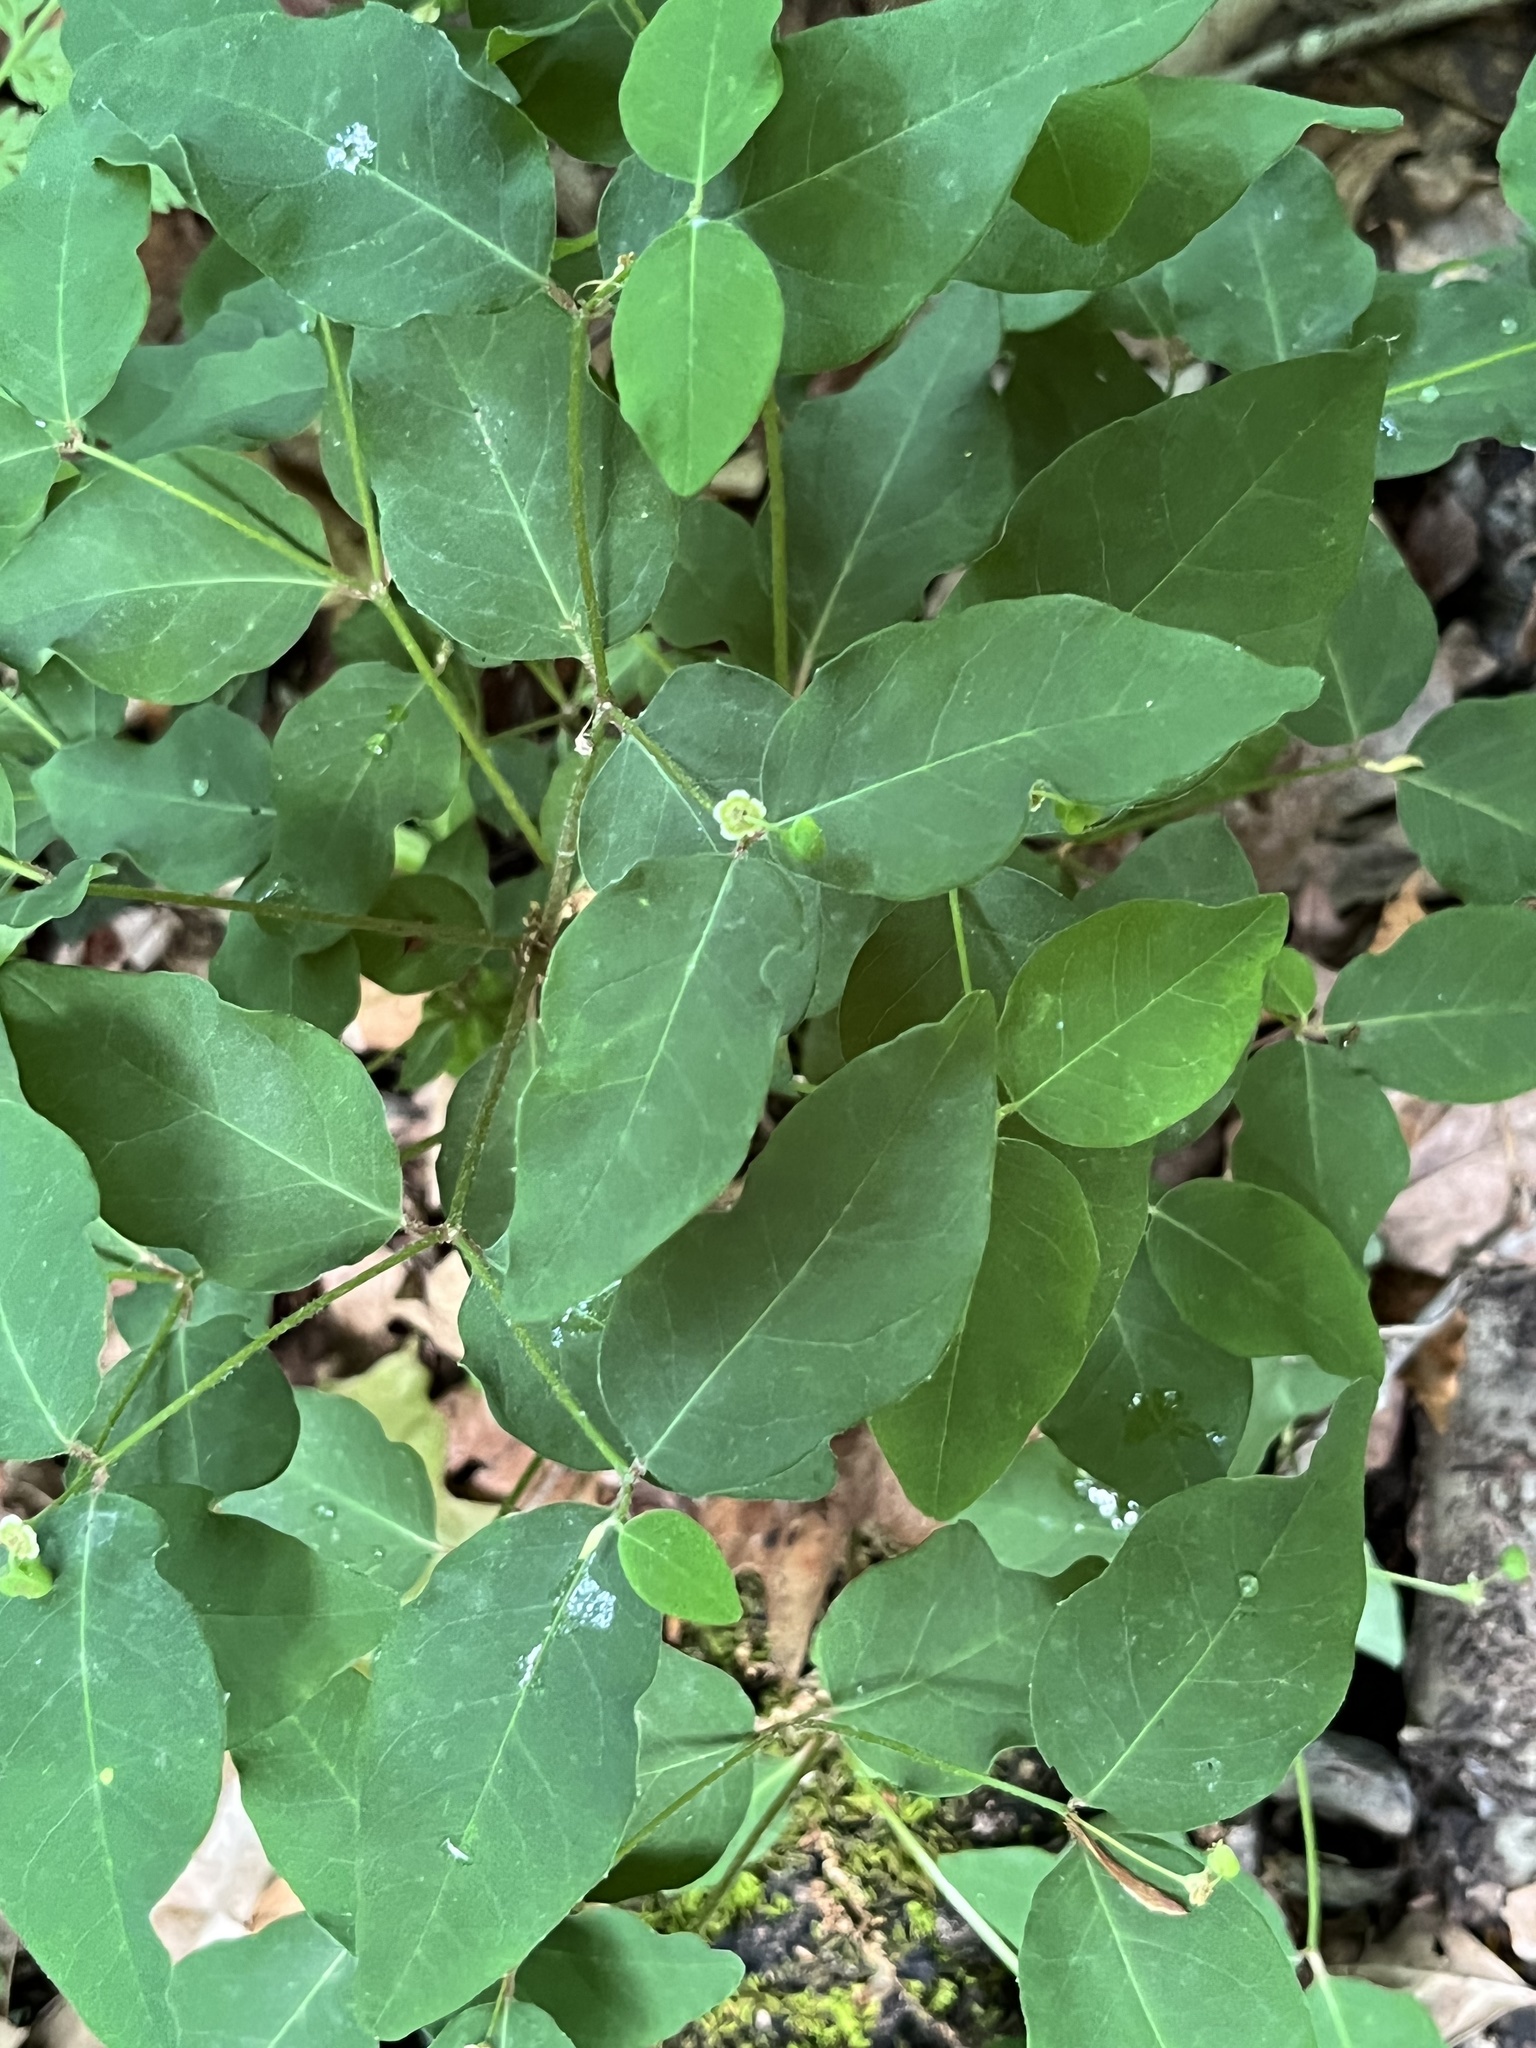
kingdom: Plantae
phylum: Tracheophyta
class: Magnoliopsida
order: Malpighiales
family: Euphorbiaceae
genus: Euphorbia
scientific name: Euphorbia mercurialina
